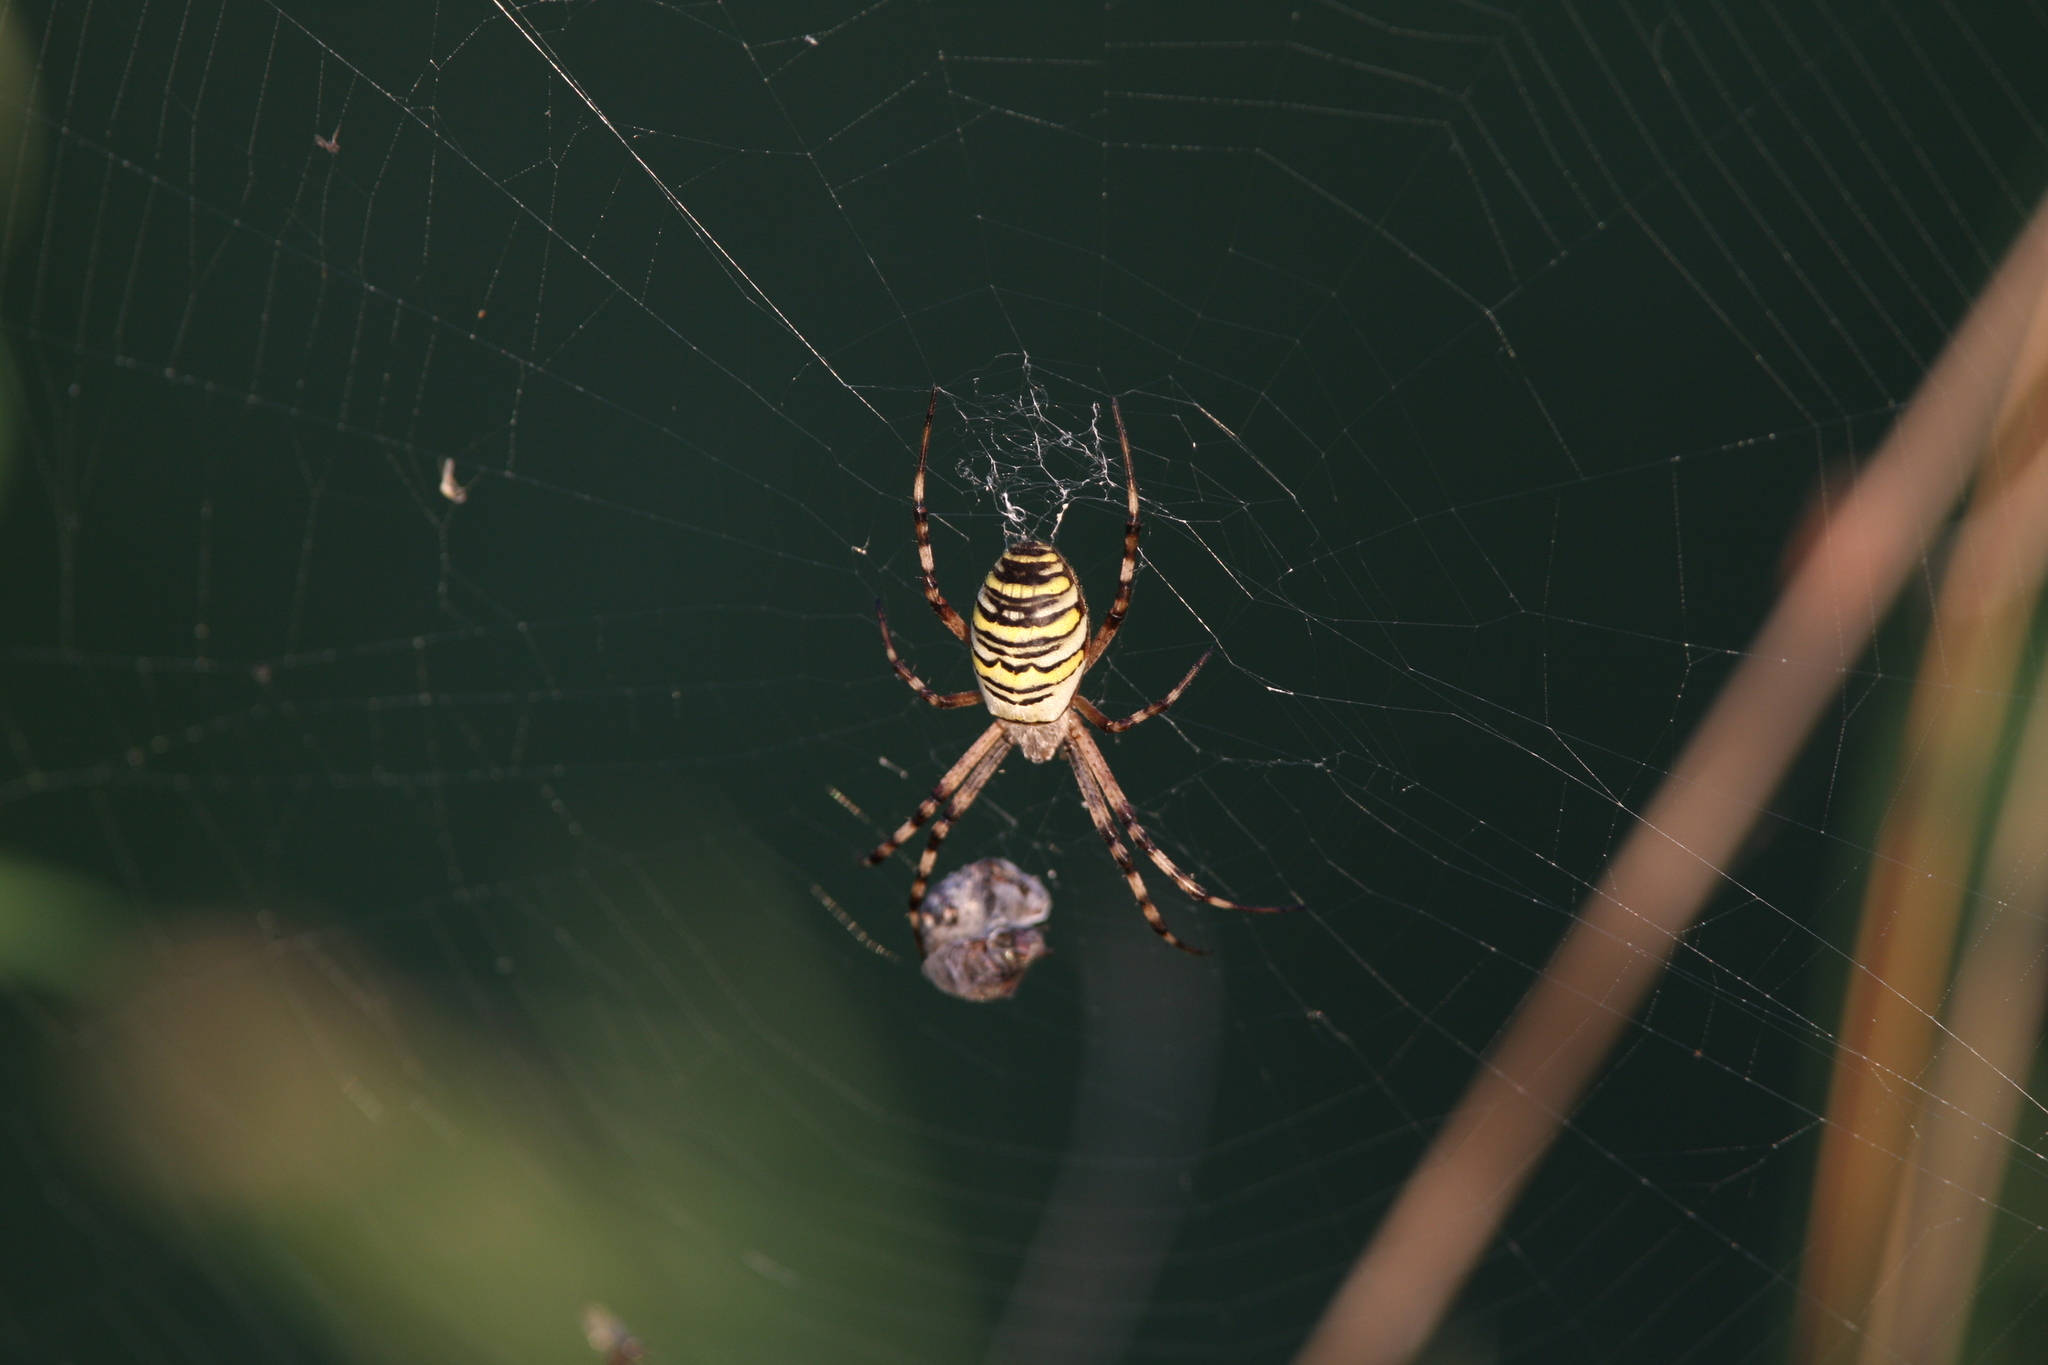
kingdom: Animalia
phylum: Arthropoda
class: Arachnida
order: Araneae
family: Araneidae
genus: Argiope
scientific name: Argiope bruennichi
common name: Wasp spider
